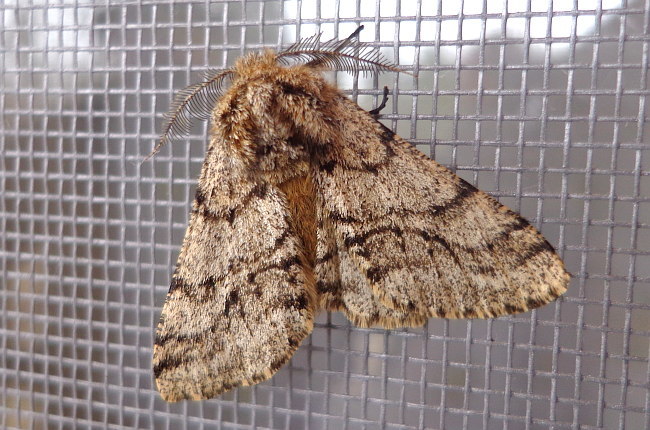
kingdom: Animalia
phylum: Arthropoda
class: Insecta
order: Lepidoptera
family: Geometridae
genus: Lycia
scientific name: Lycia hirtaria
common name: Brindled beauty
